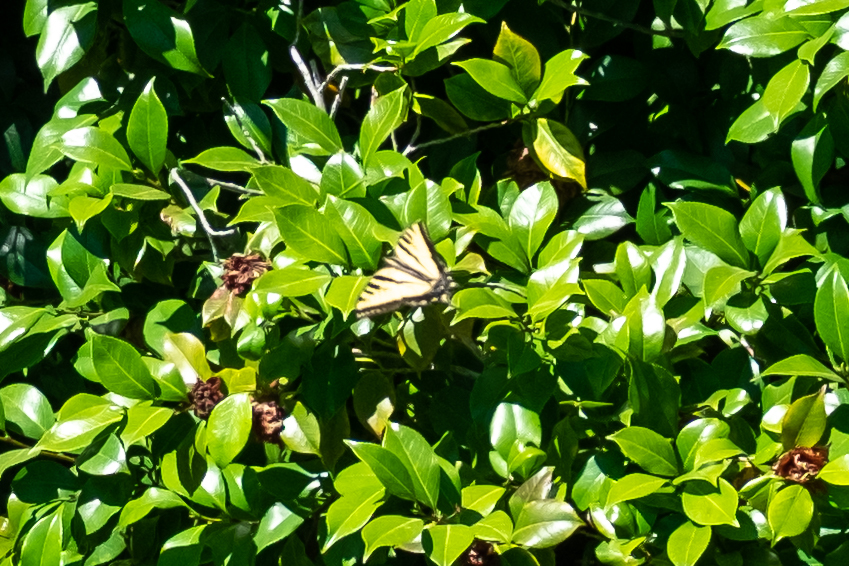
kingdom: Animalia
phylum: Arthropoda
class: Insecta
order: Lepidoptera
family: Papilionidae
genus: Papilio
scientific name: Papilio rutulus
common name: Western tiger swallowtail
